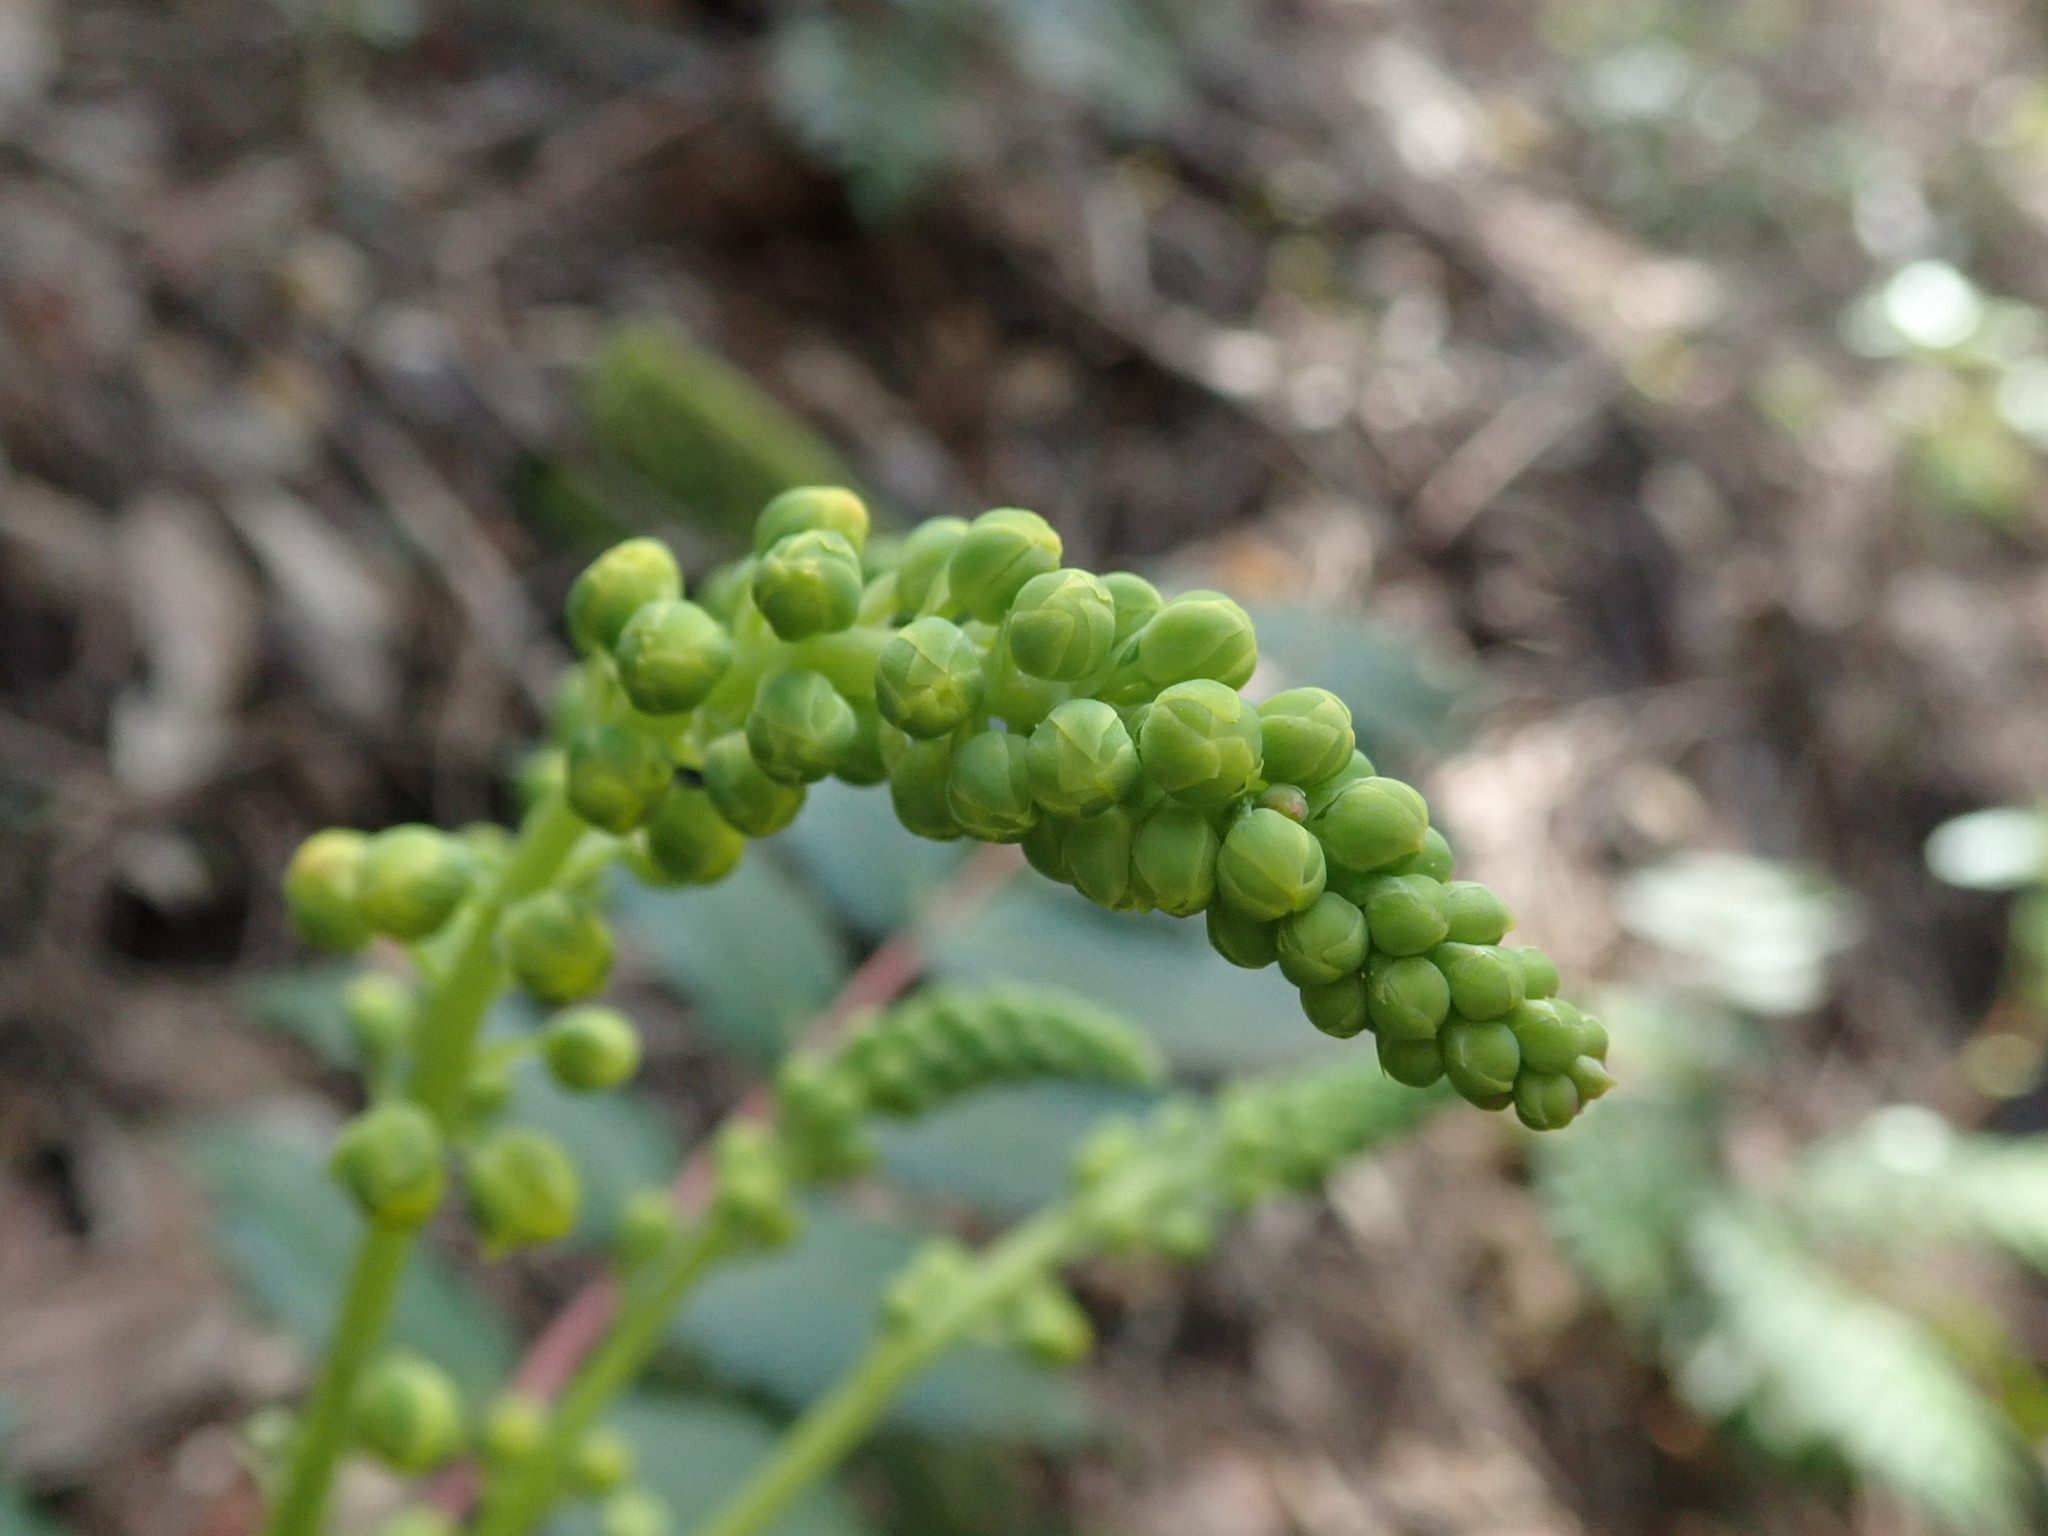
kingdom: Plantae
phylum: Tracheophyta
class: Magnoliopsida
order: Ranunculales
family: Berberidaceae
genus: Mahonia
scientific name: Mahonia nervosa
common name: Cascade oregon-grape
